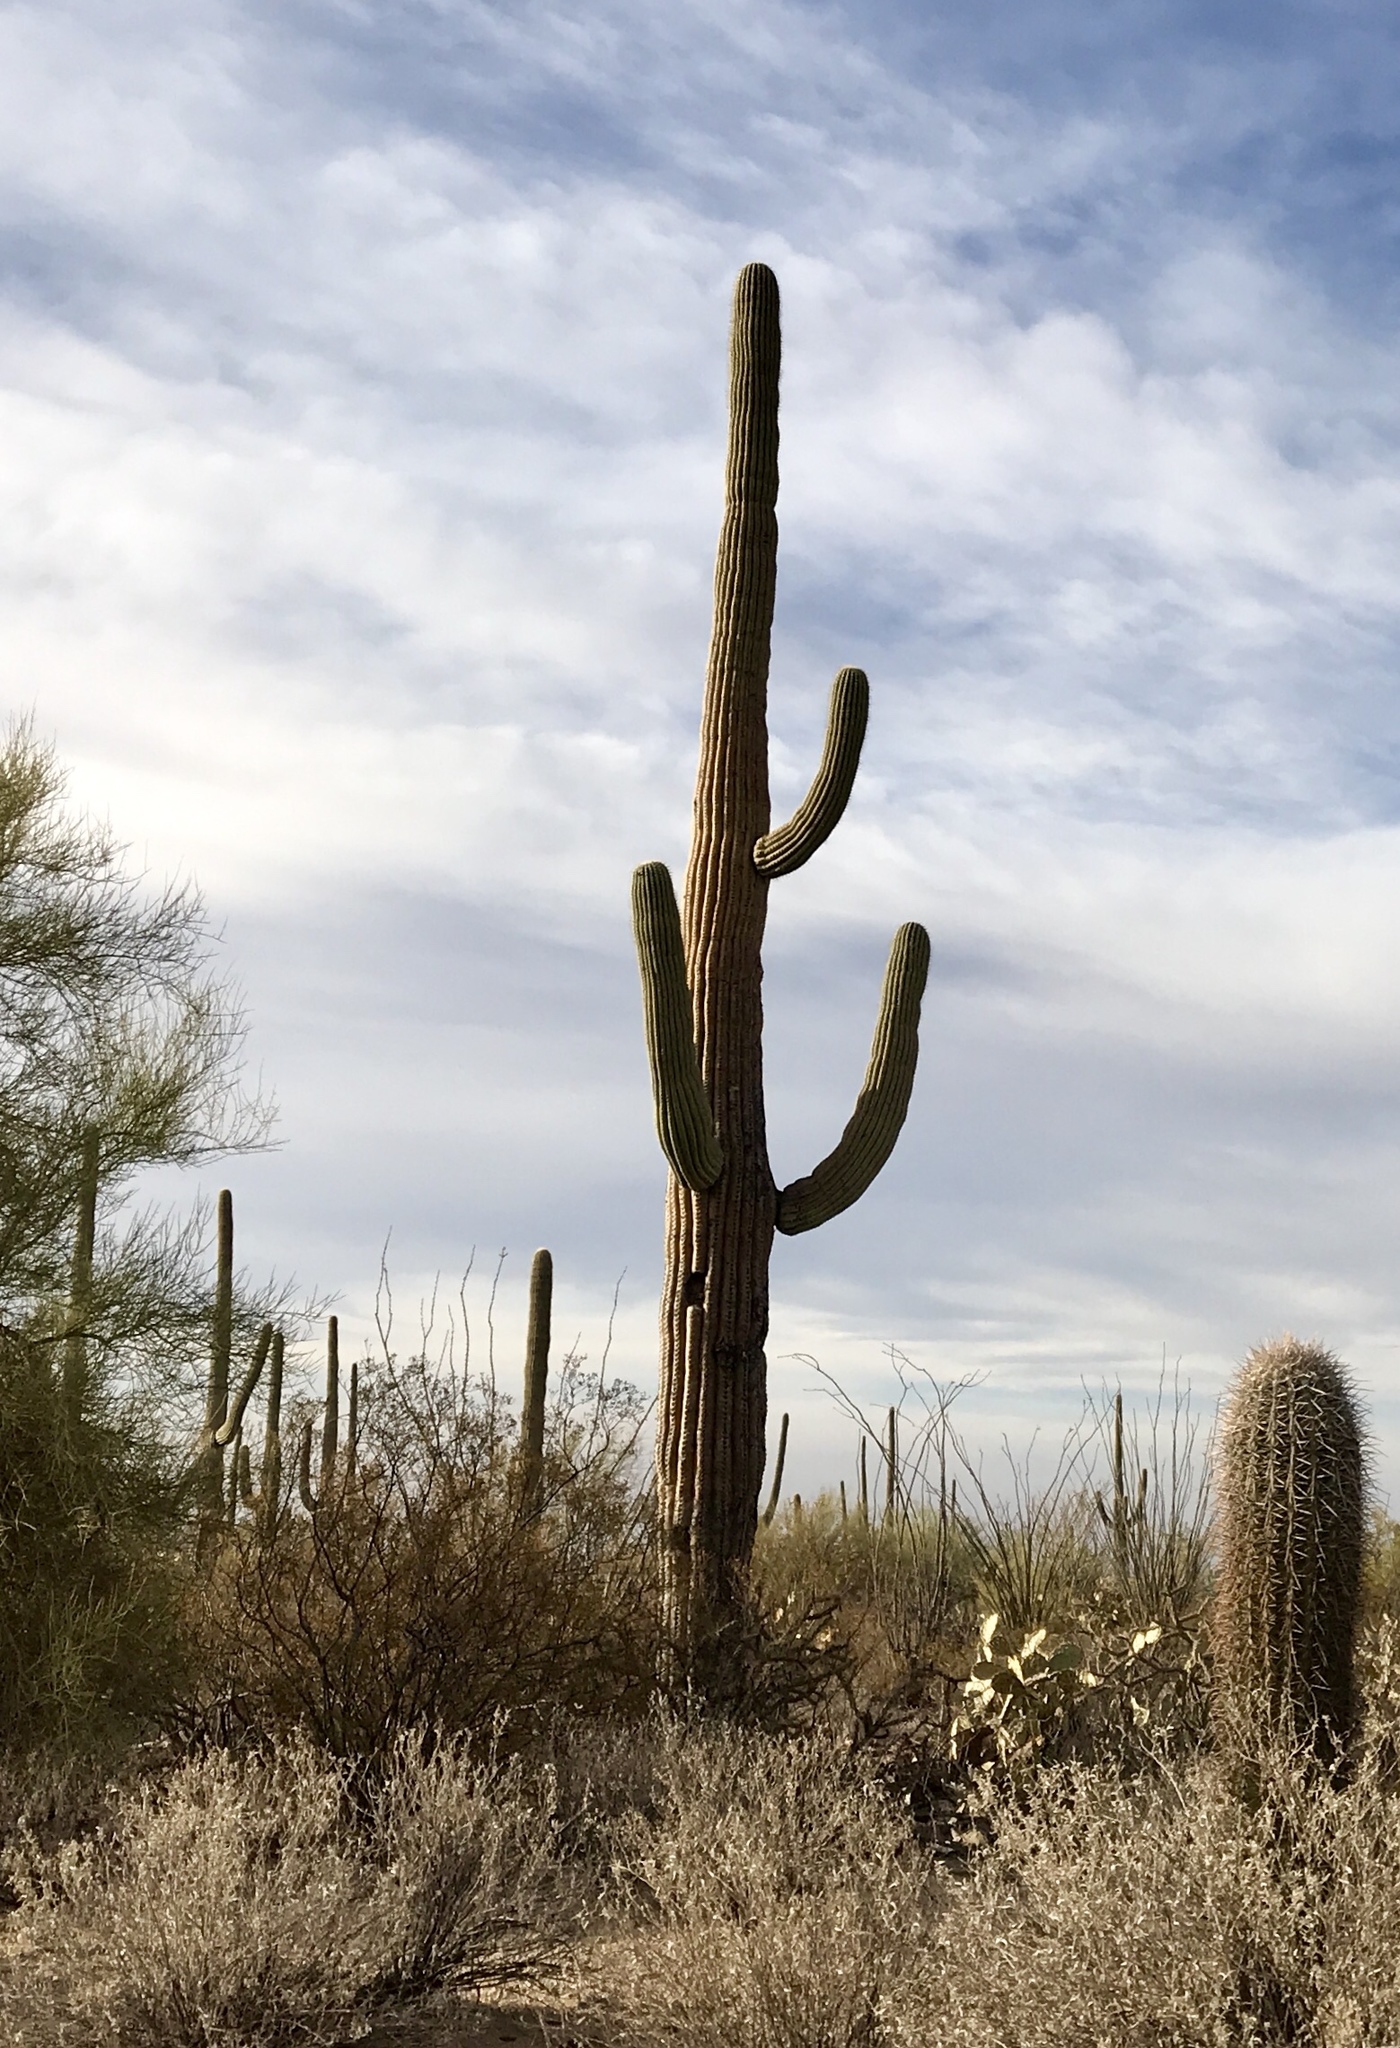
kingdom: Plantae
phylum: Tracheophyta
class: Magnoliopsida
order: Caryophyllales
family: Cactaceae
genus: Carnegiea
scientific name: Carnegiea gigantea
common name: Saguaro
